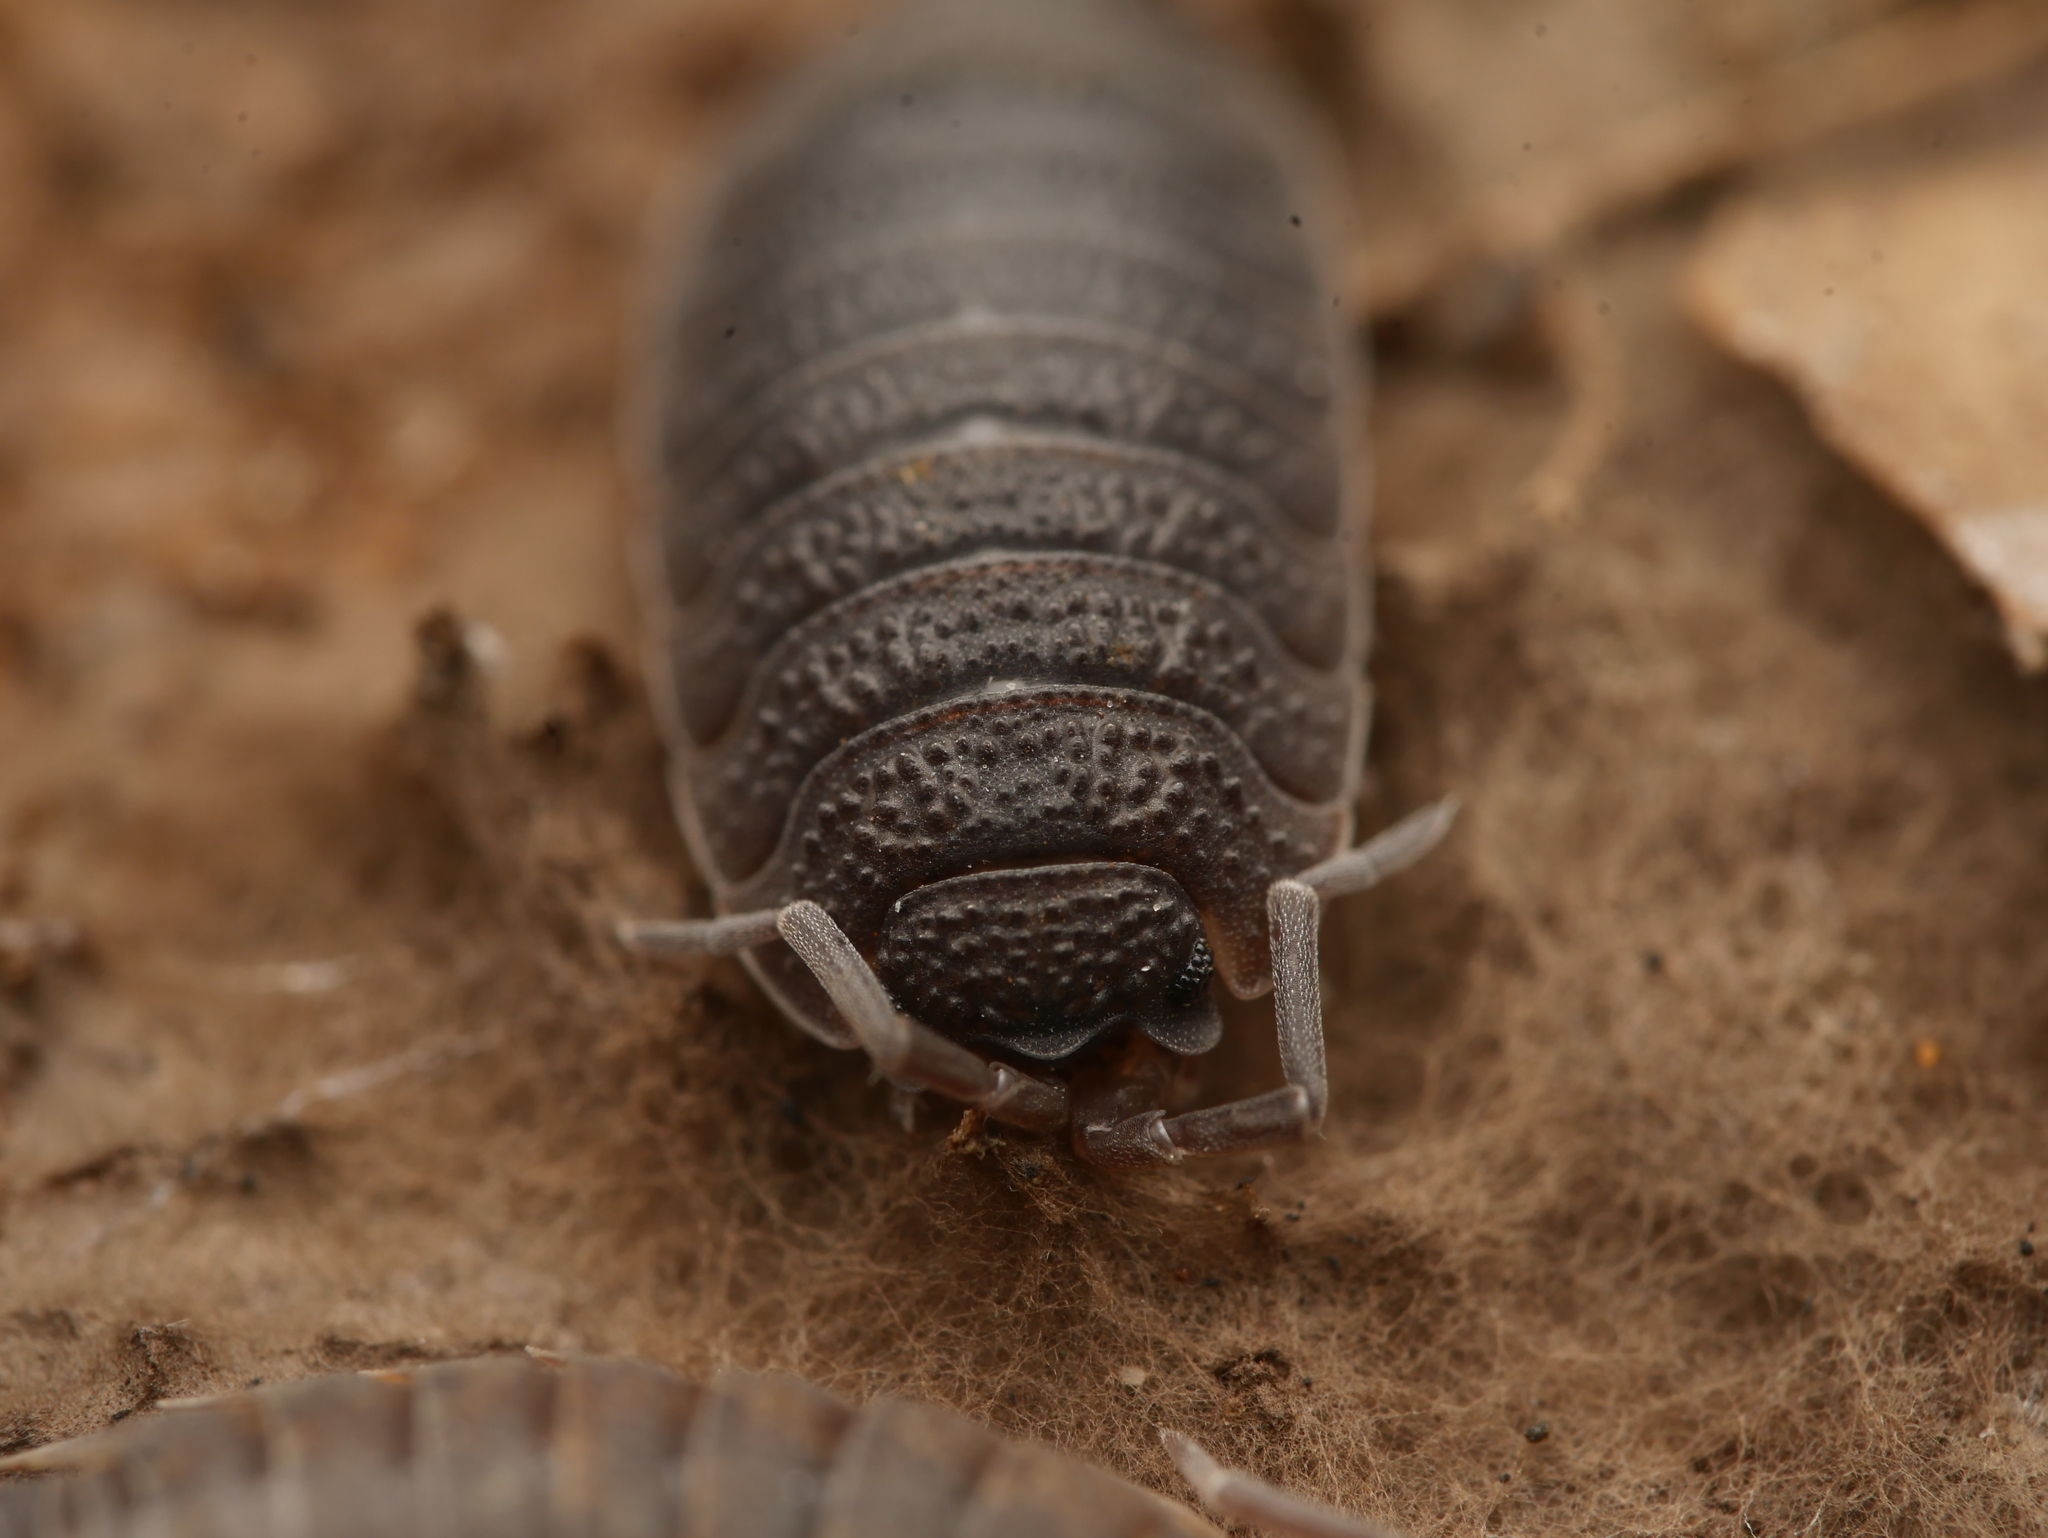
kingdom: Animalia
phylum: Arthropoda
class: Malacostraca
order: Isopoda
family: Porcellionidae
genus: Porcellio
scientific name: Porcellio scaber
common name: Common rough woodlouse
